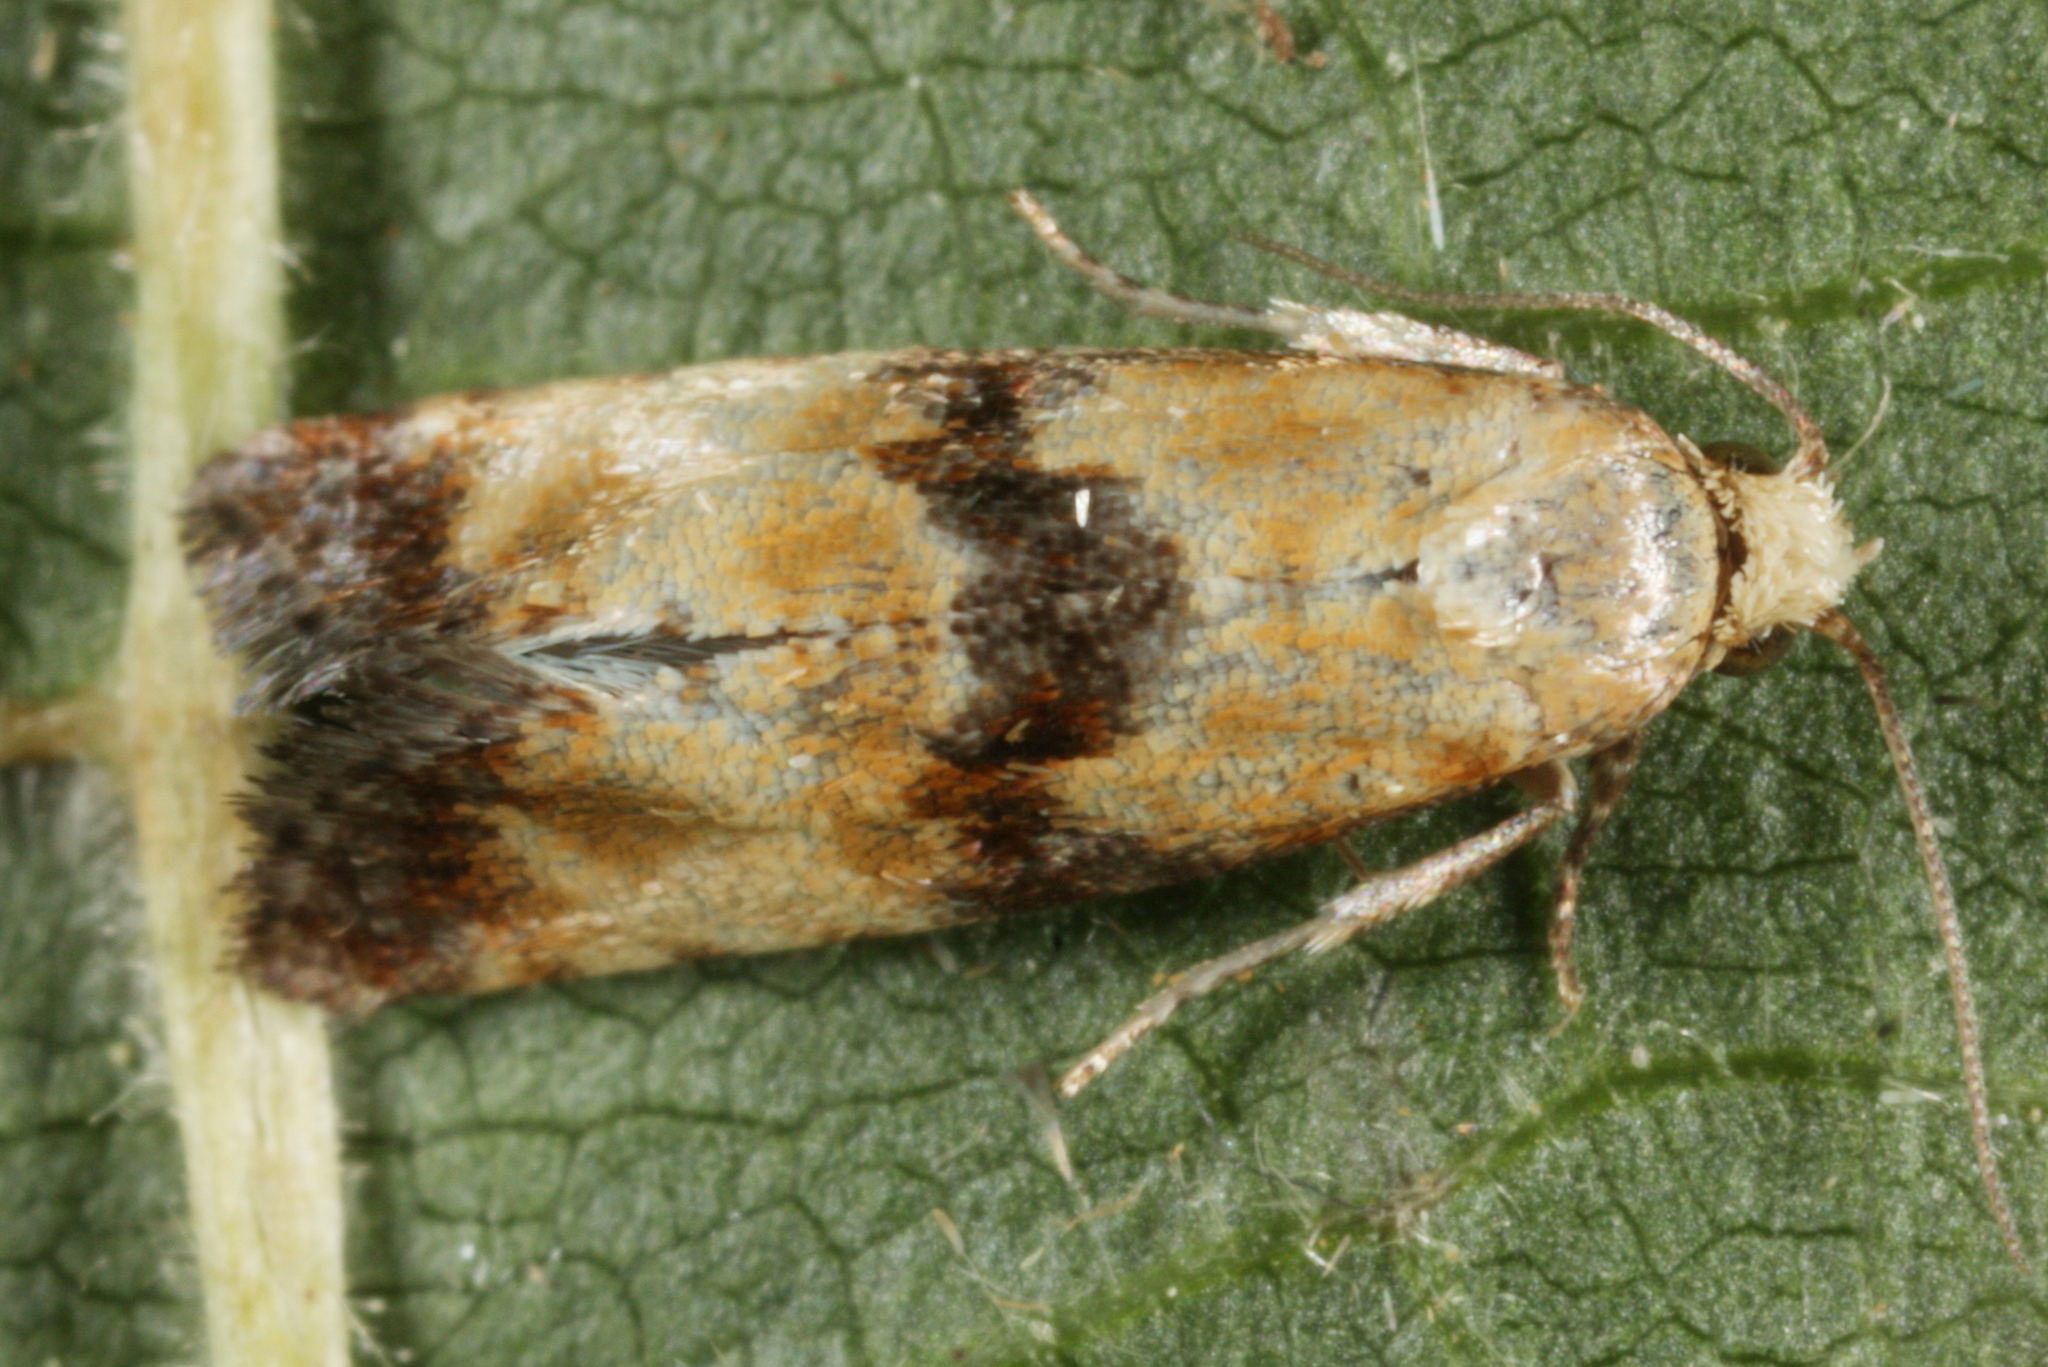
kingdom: Animalia
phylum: Arthropoda
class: Insecta
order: Lepidoptera
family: Tortricidae
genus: Eupoecilia
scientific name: Eupoecilia angustana
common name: Marbled conch
